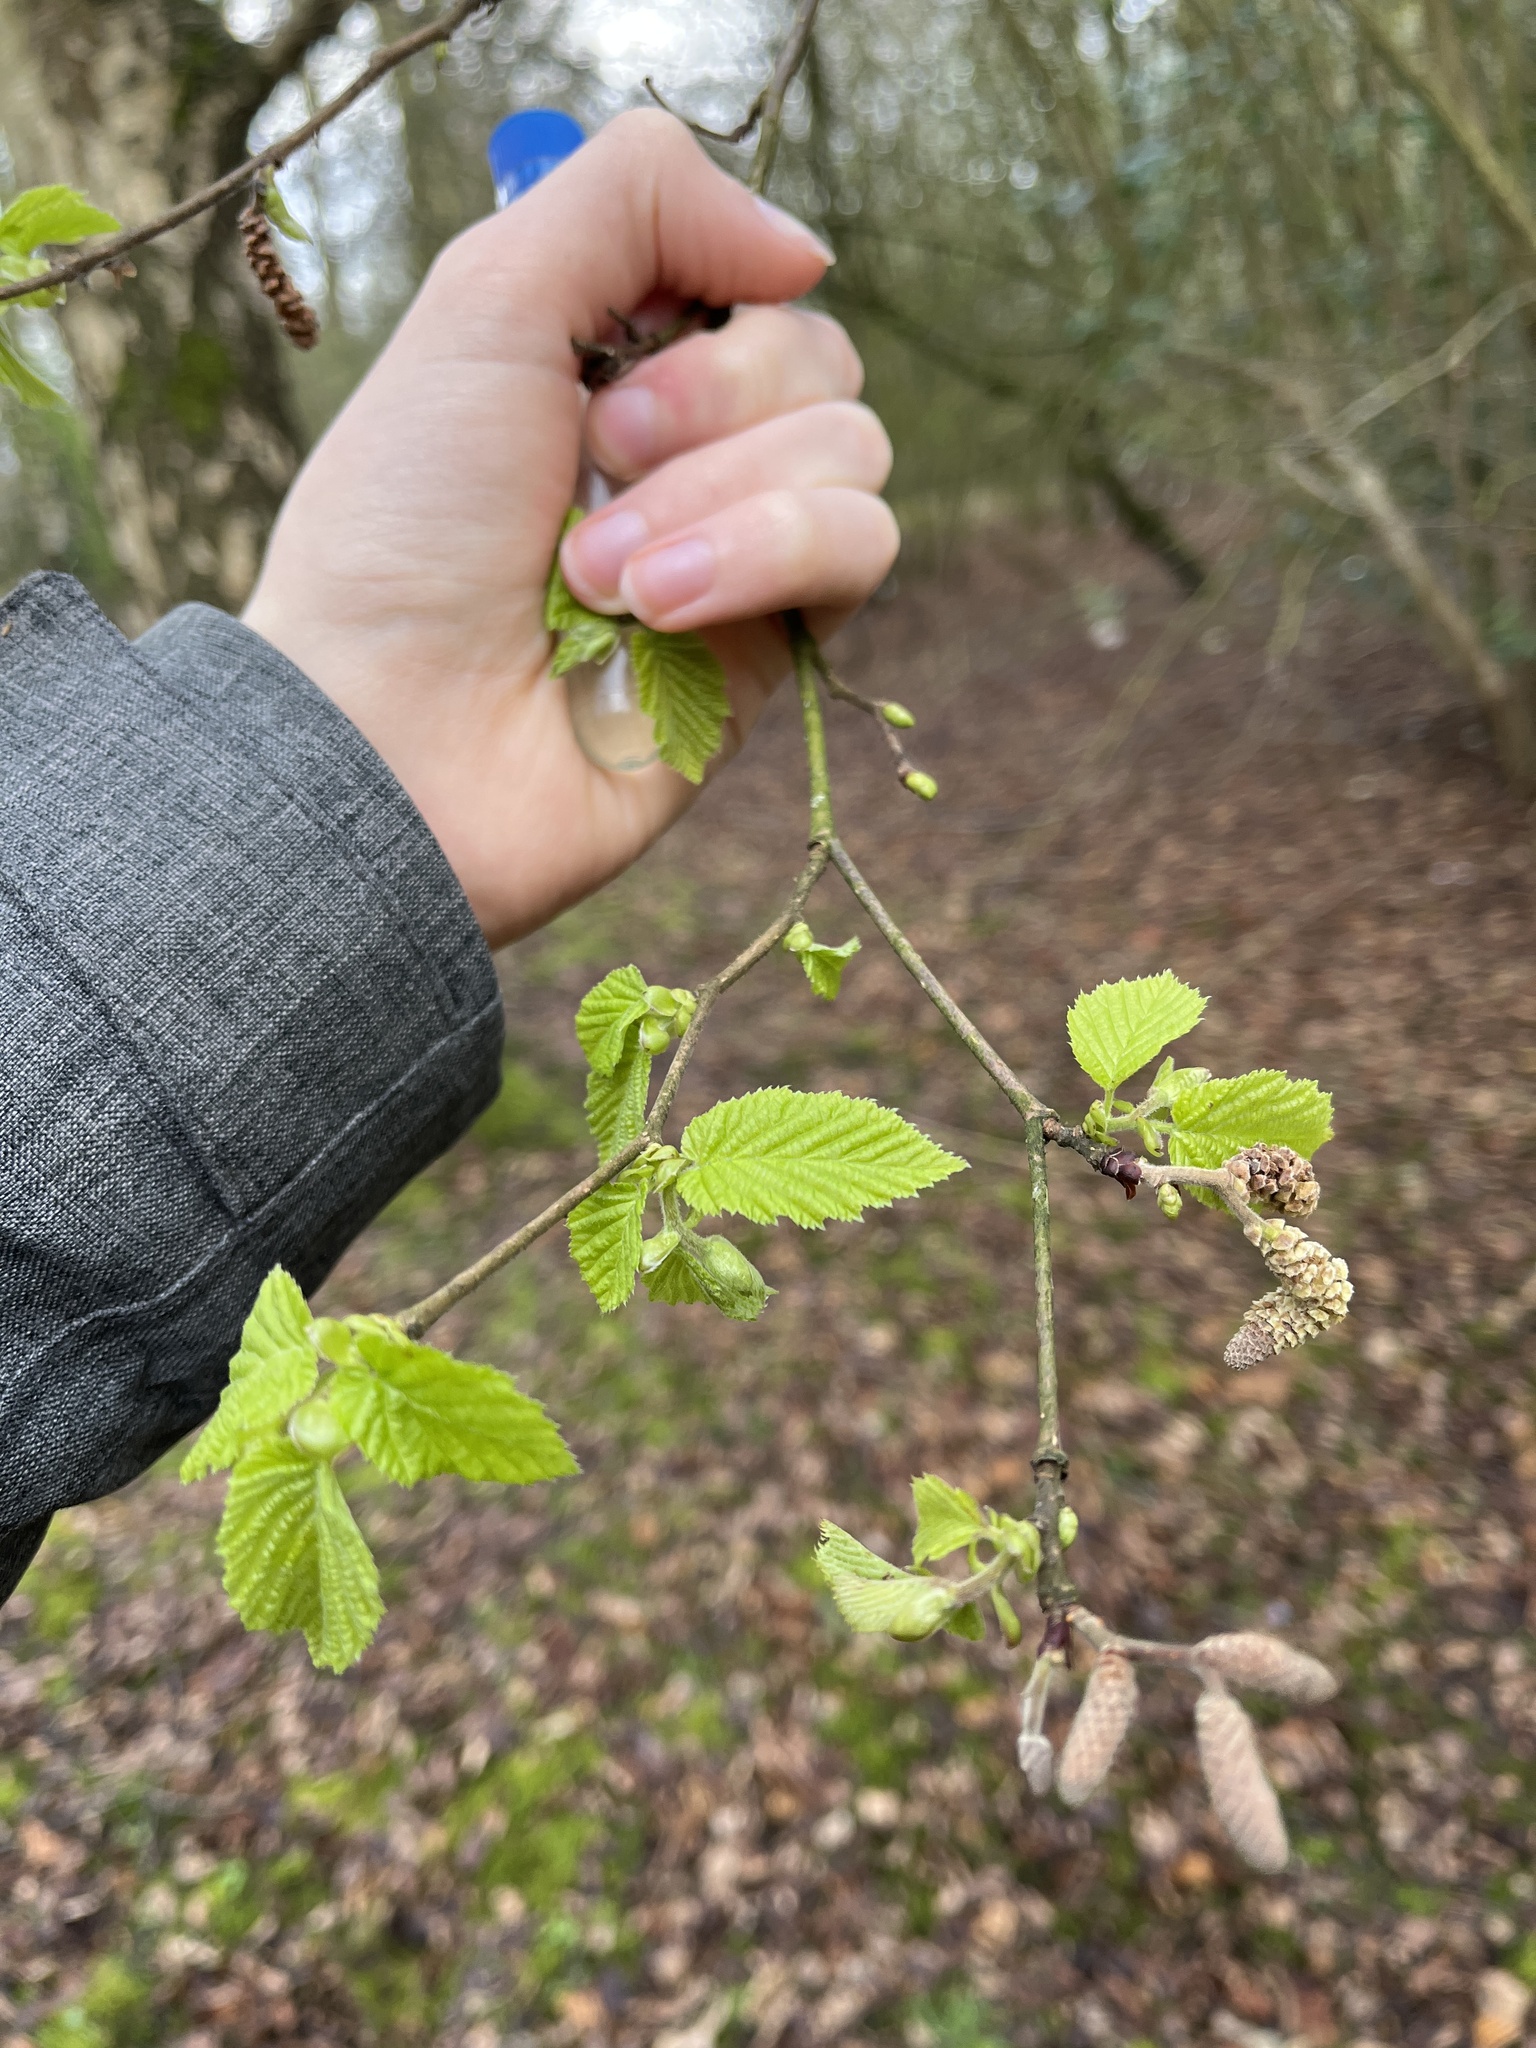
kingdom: Plantae
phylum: Tracheophyta
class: Magnoliopsida
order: Fagales
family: Betulaceae
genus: Carpinus
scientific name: Carpinus betulus
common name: Hornbeam
